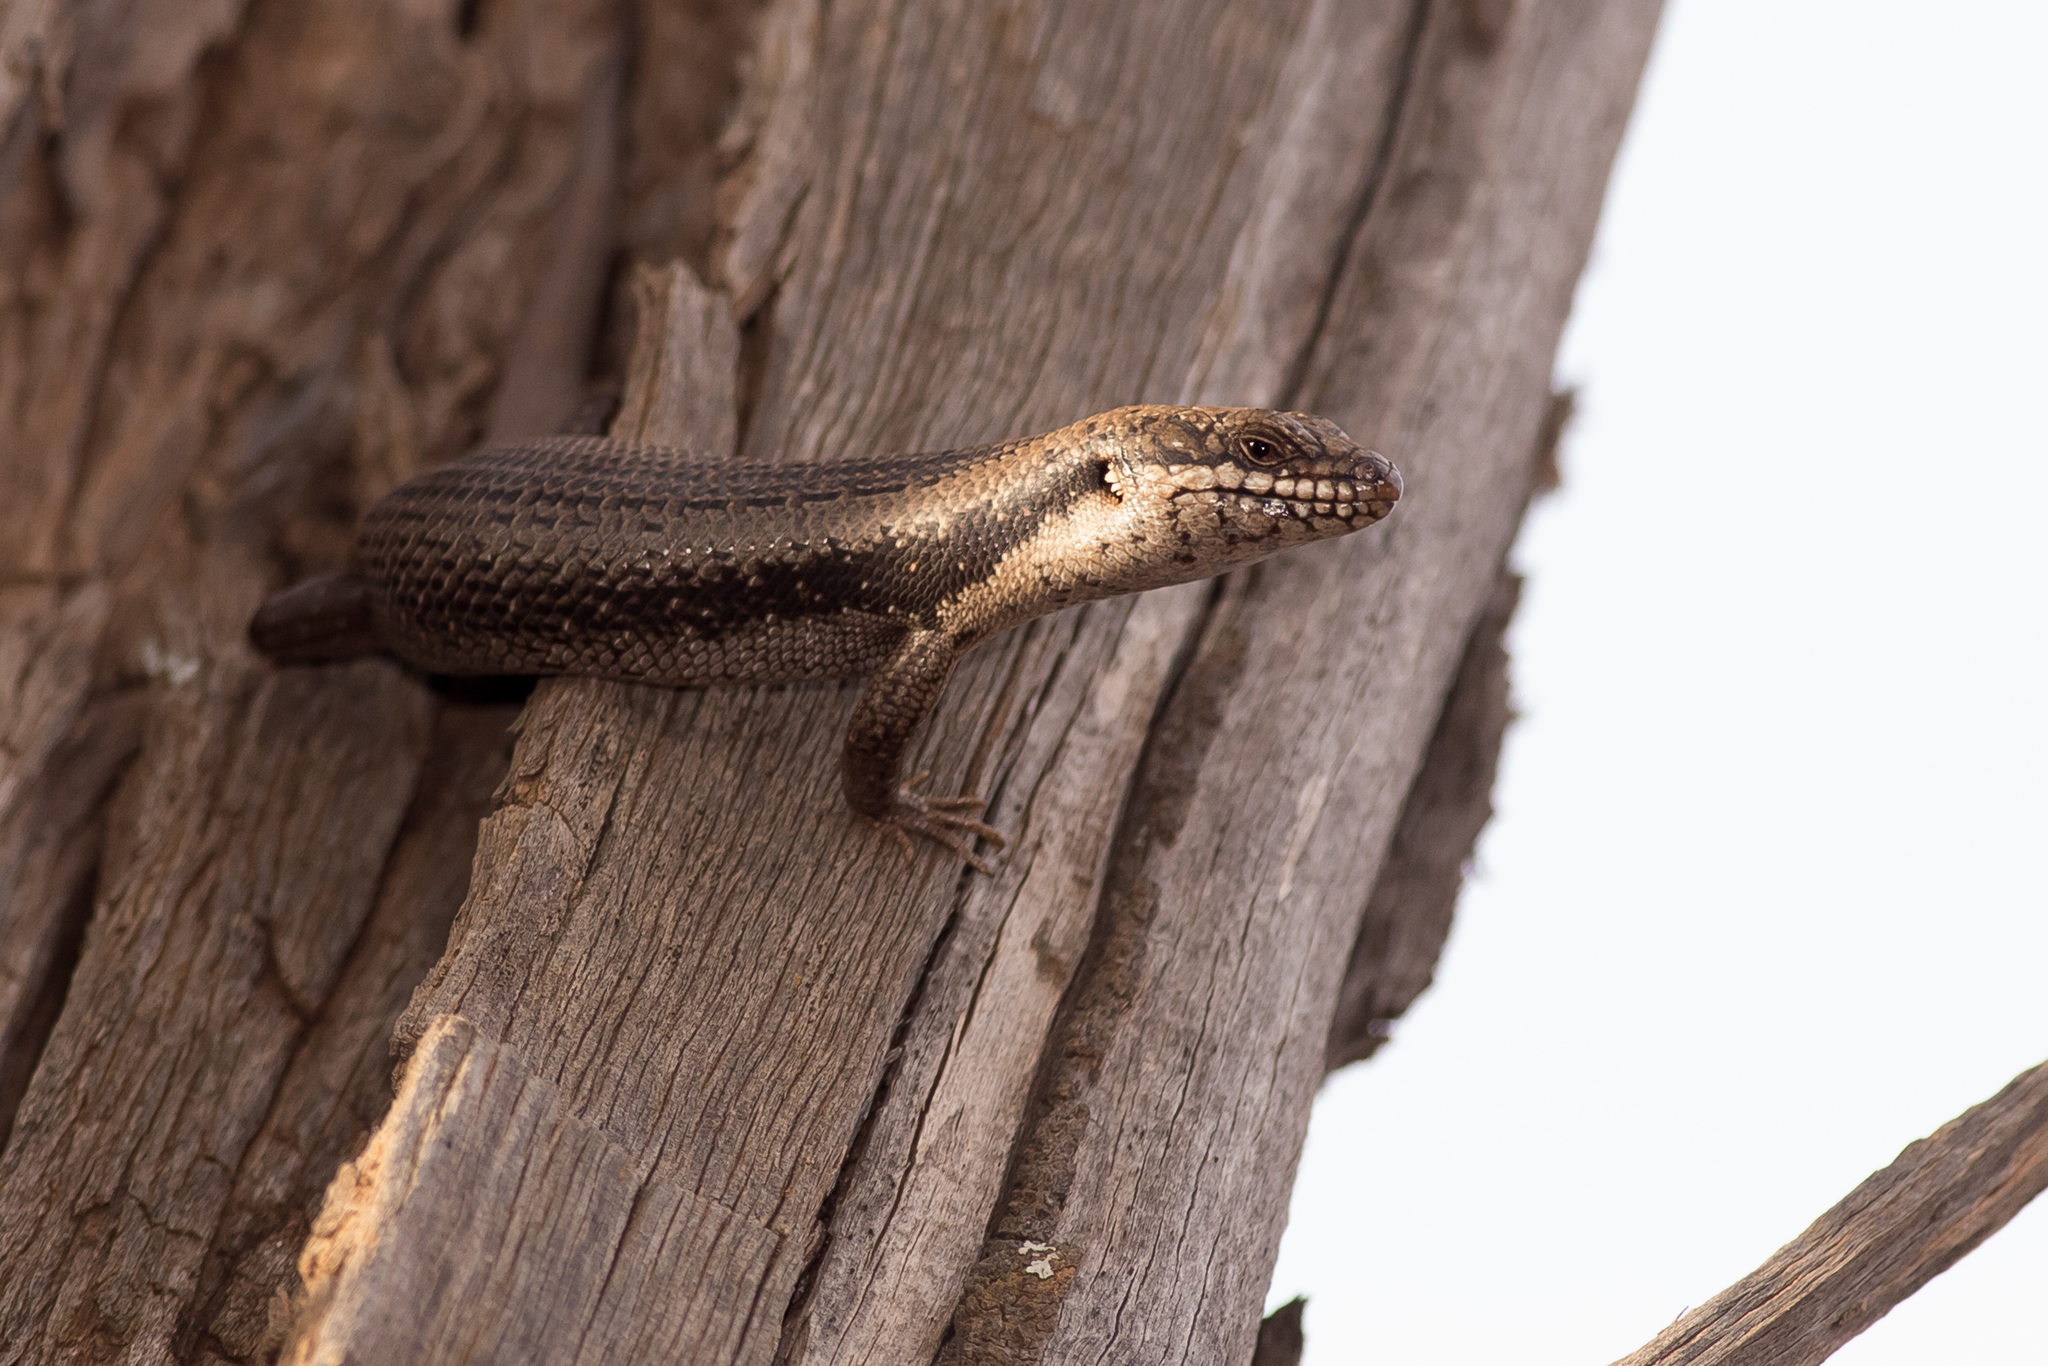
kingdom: Animalia
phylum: Chordata
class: Squamata
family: Scincidae
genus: Egernia
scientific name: Egernia striolata
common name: Tree skink
